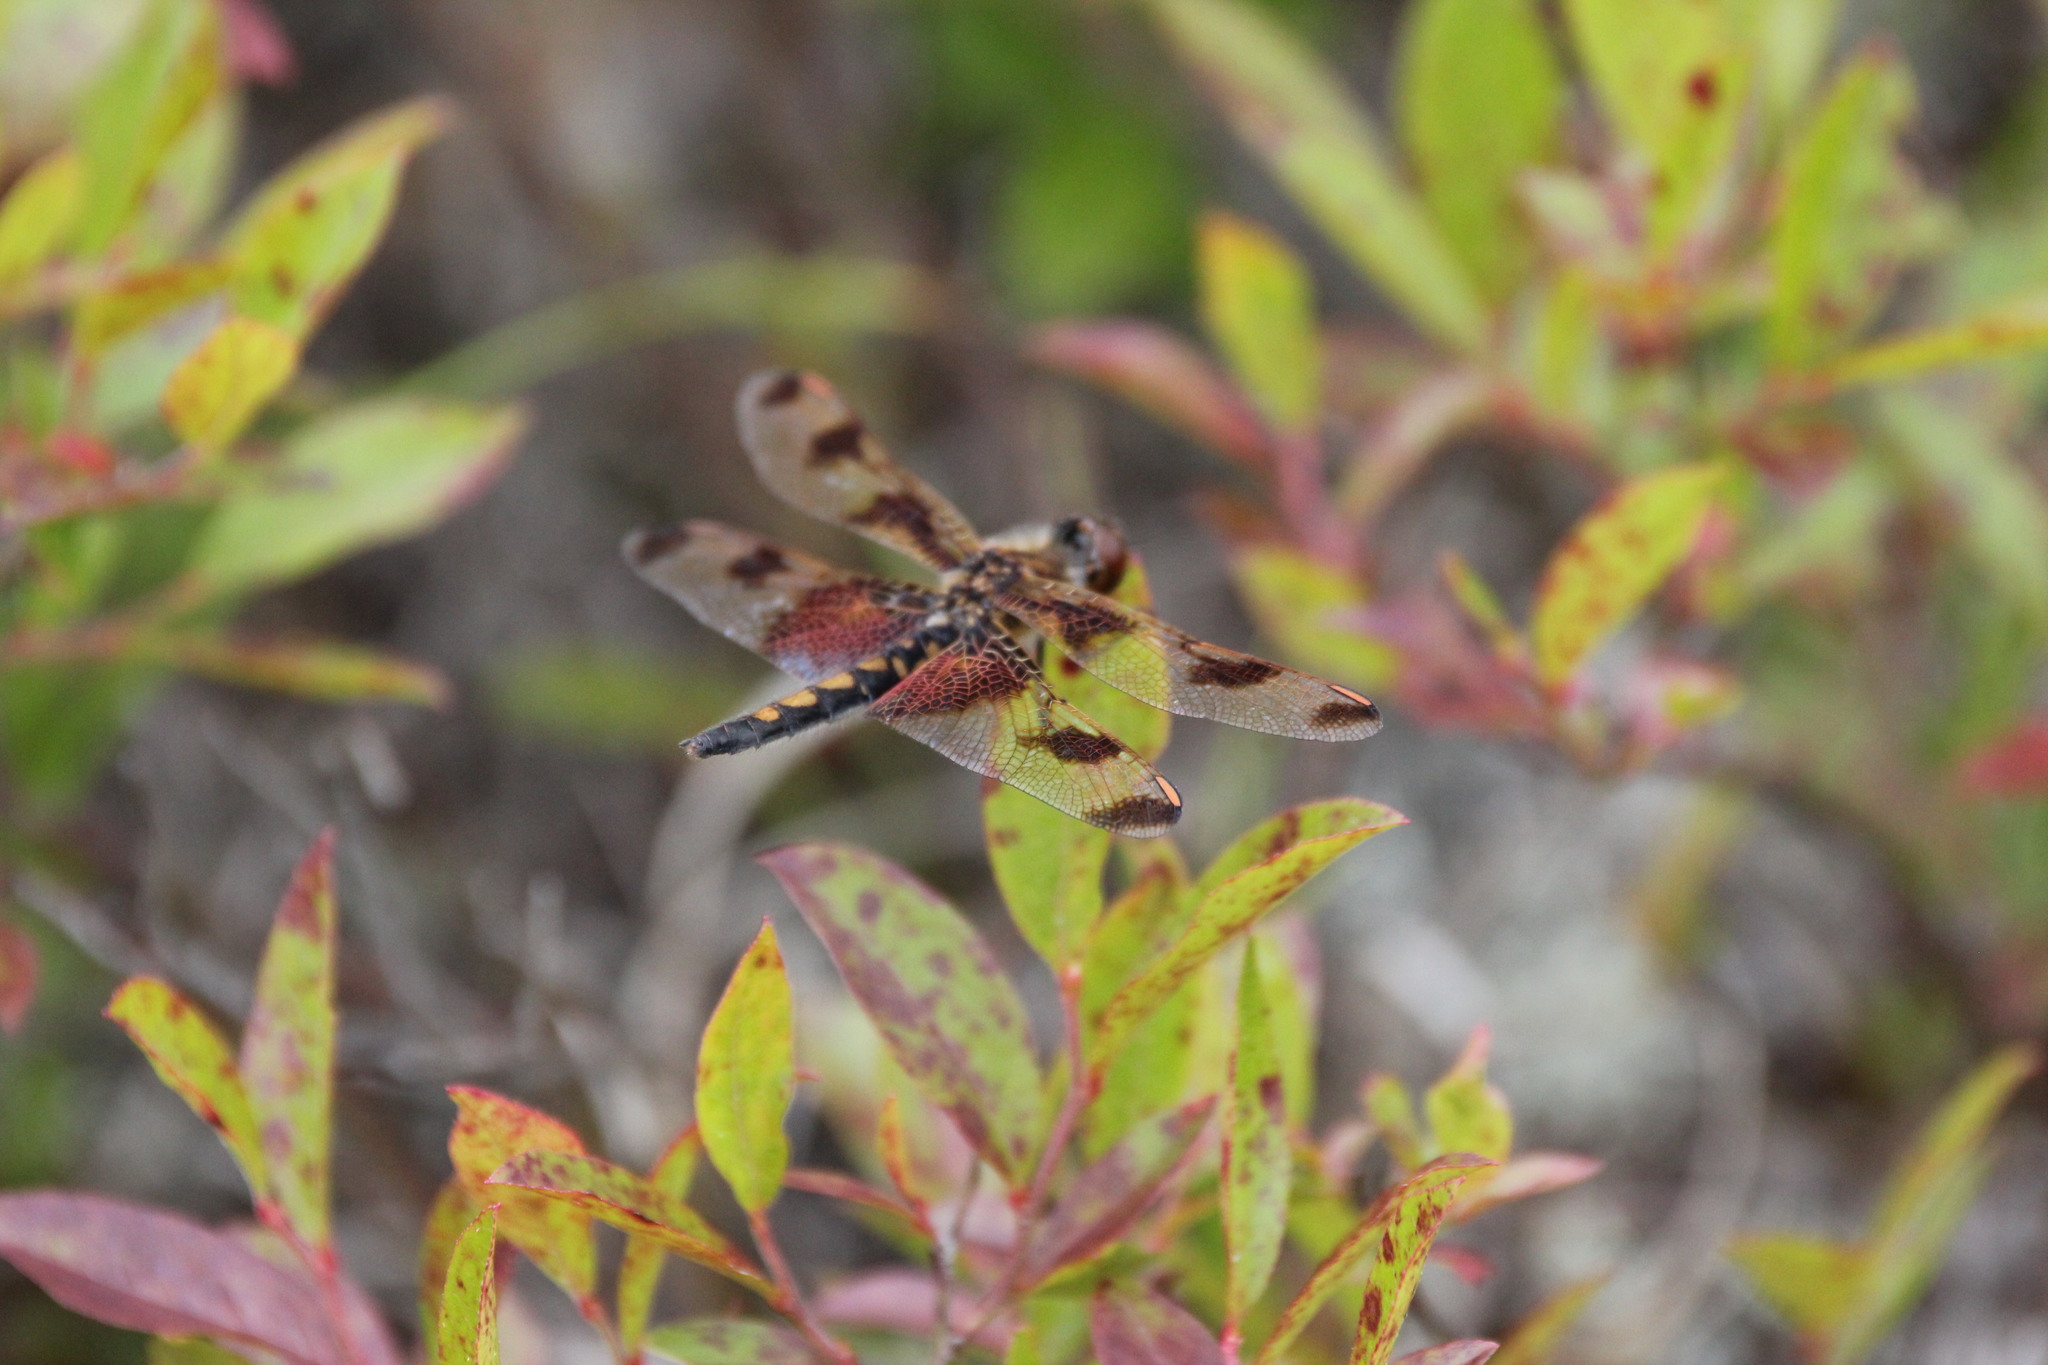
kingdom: Animalia
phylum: Arthropoda
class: Insecta
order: Odonata
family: Libellulidae
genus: Celithemis
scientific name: Celithemis elisa
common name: Calico pennant
